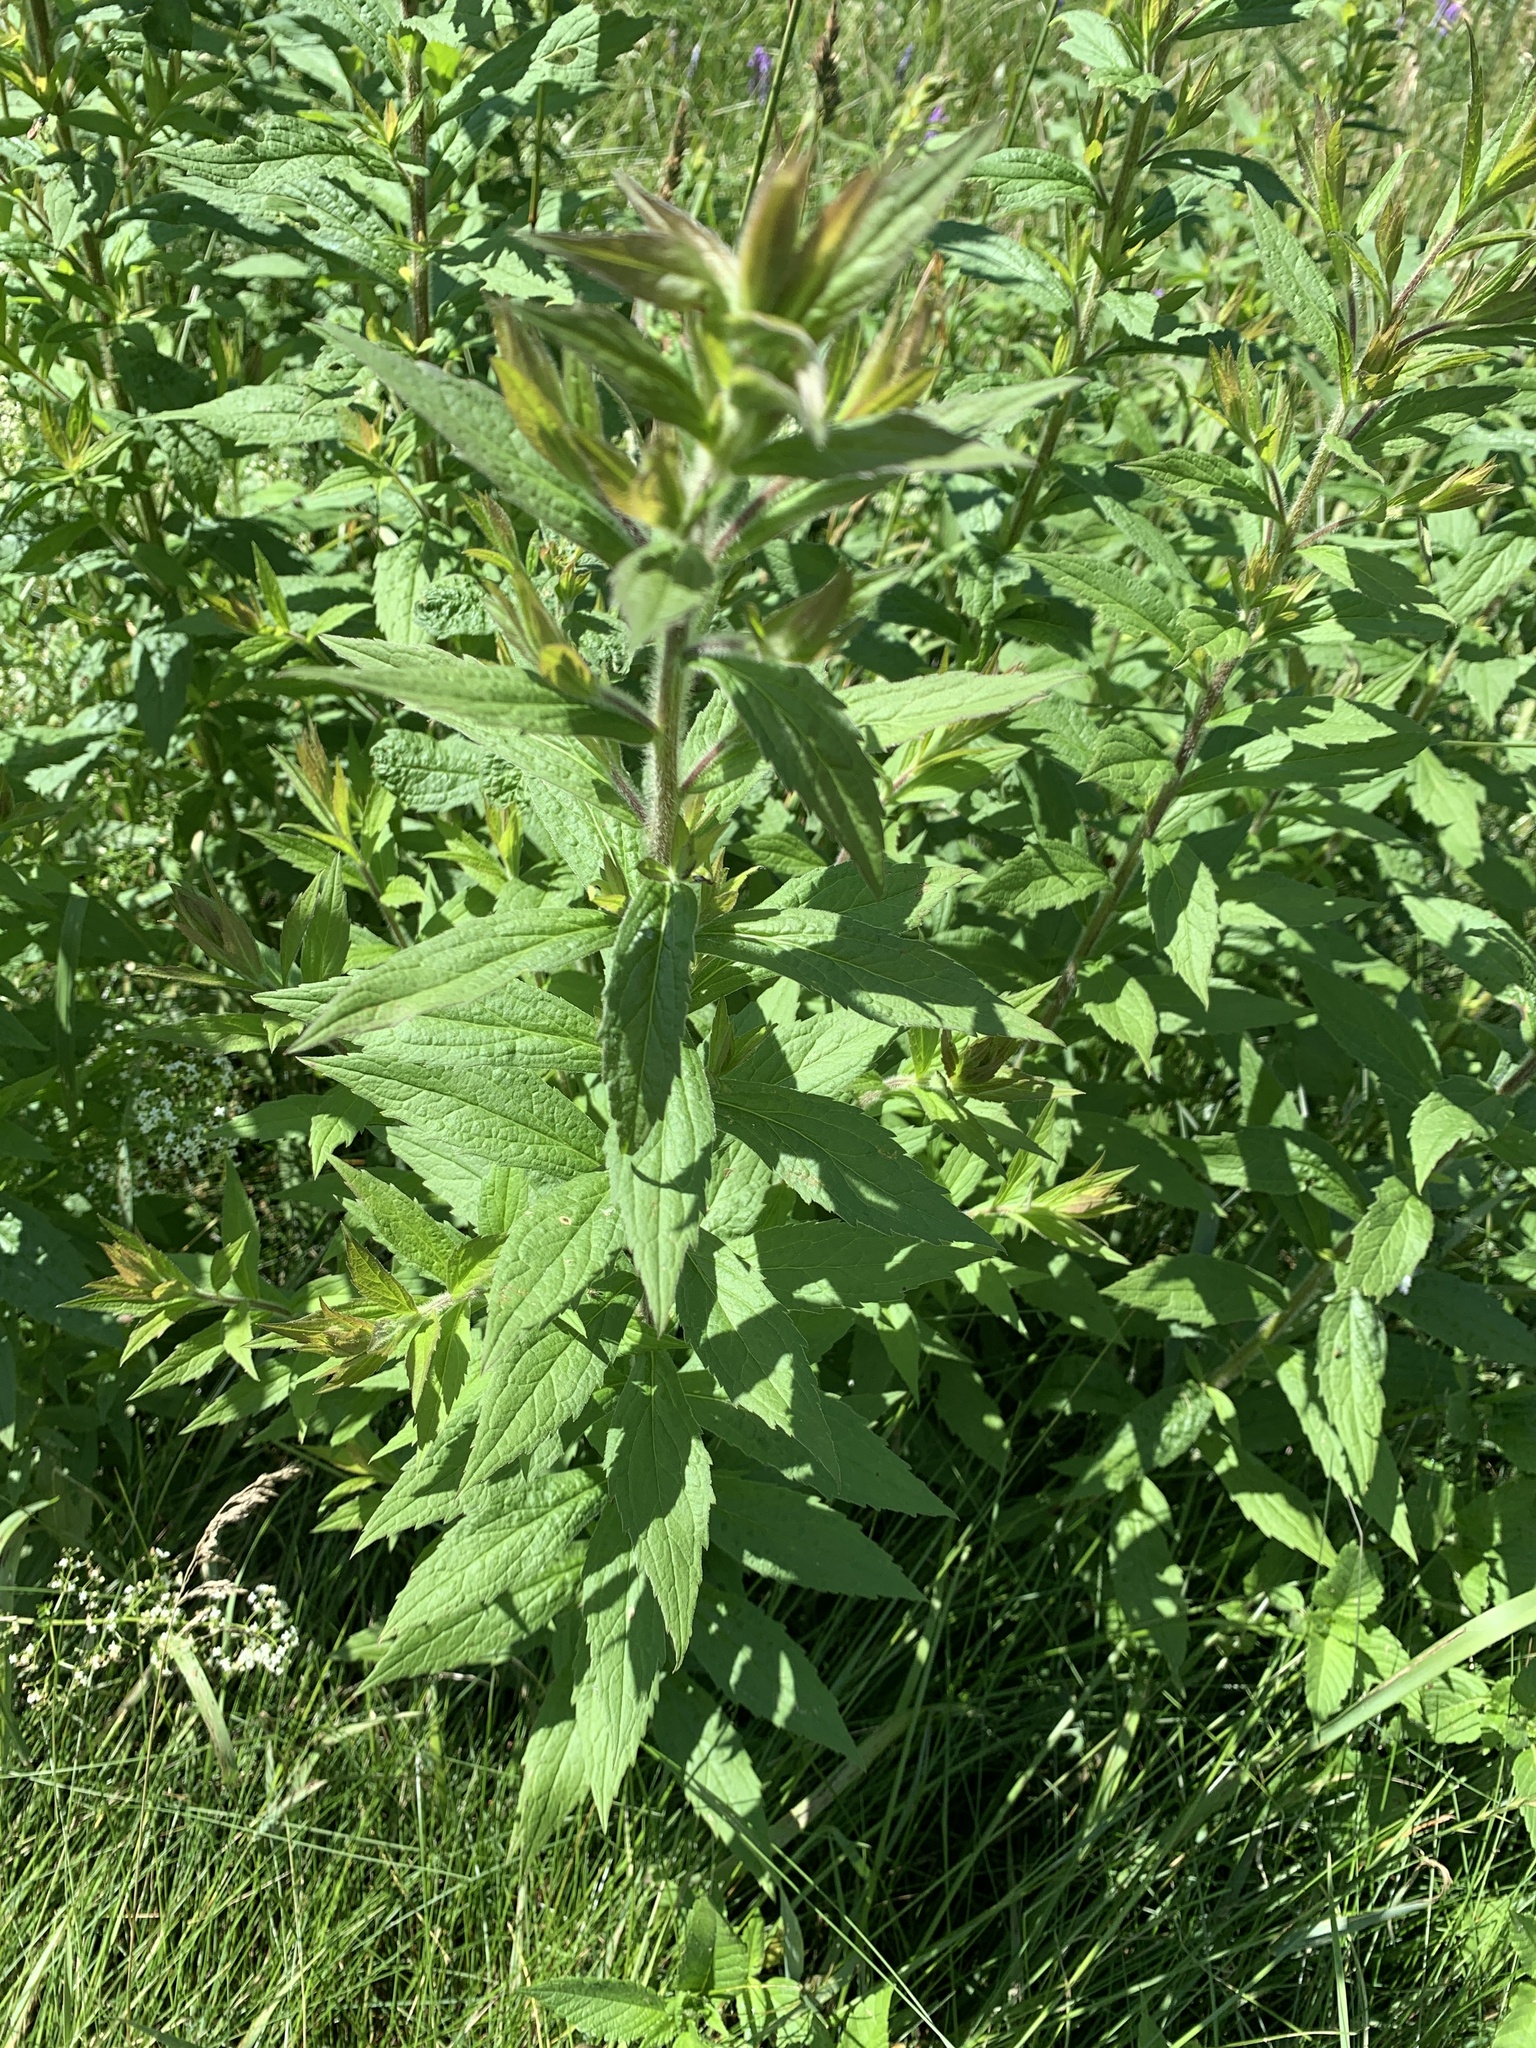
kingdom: Plantae
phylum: Tracheophyta
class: Magnoliopsida
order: Asterales
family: Asteraceae
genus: Solidago
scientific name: Solidago rugosa
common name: Rough-stemmed goldenrod
